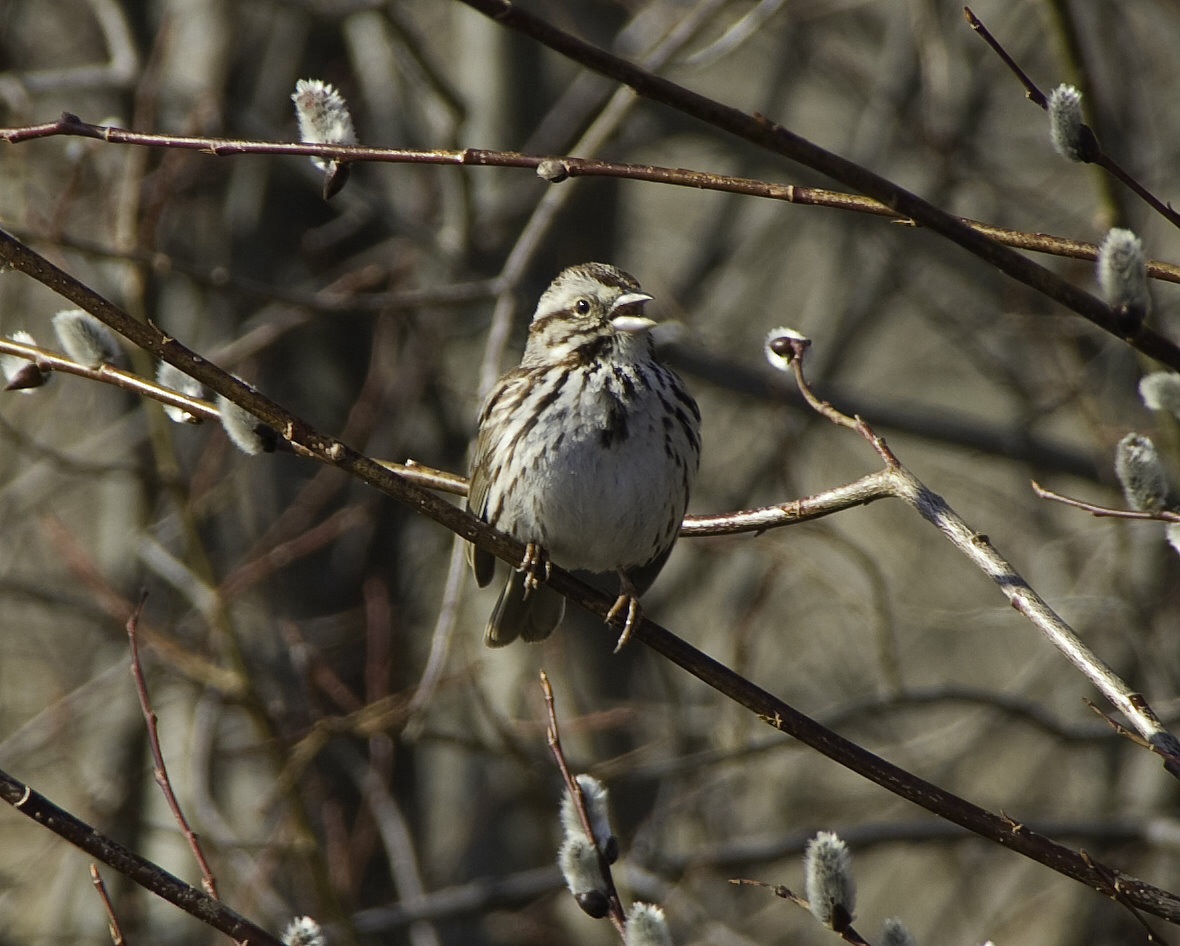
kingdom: Animalia
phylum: Chordata
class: Aves
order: Passeriformes
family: Passerellidae
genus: Melospiza
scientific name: Melospiza melodia
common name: Song sparrow
